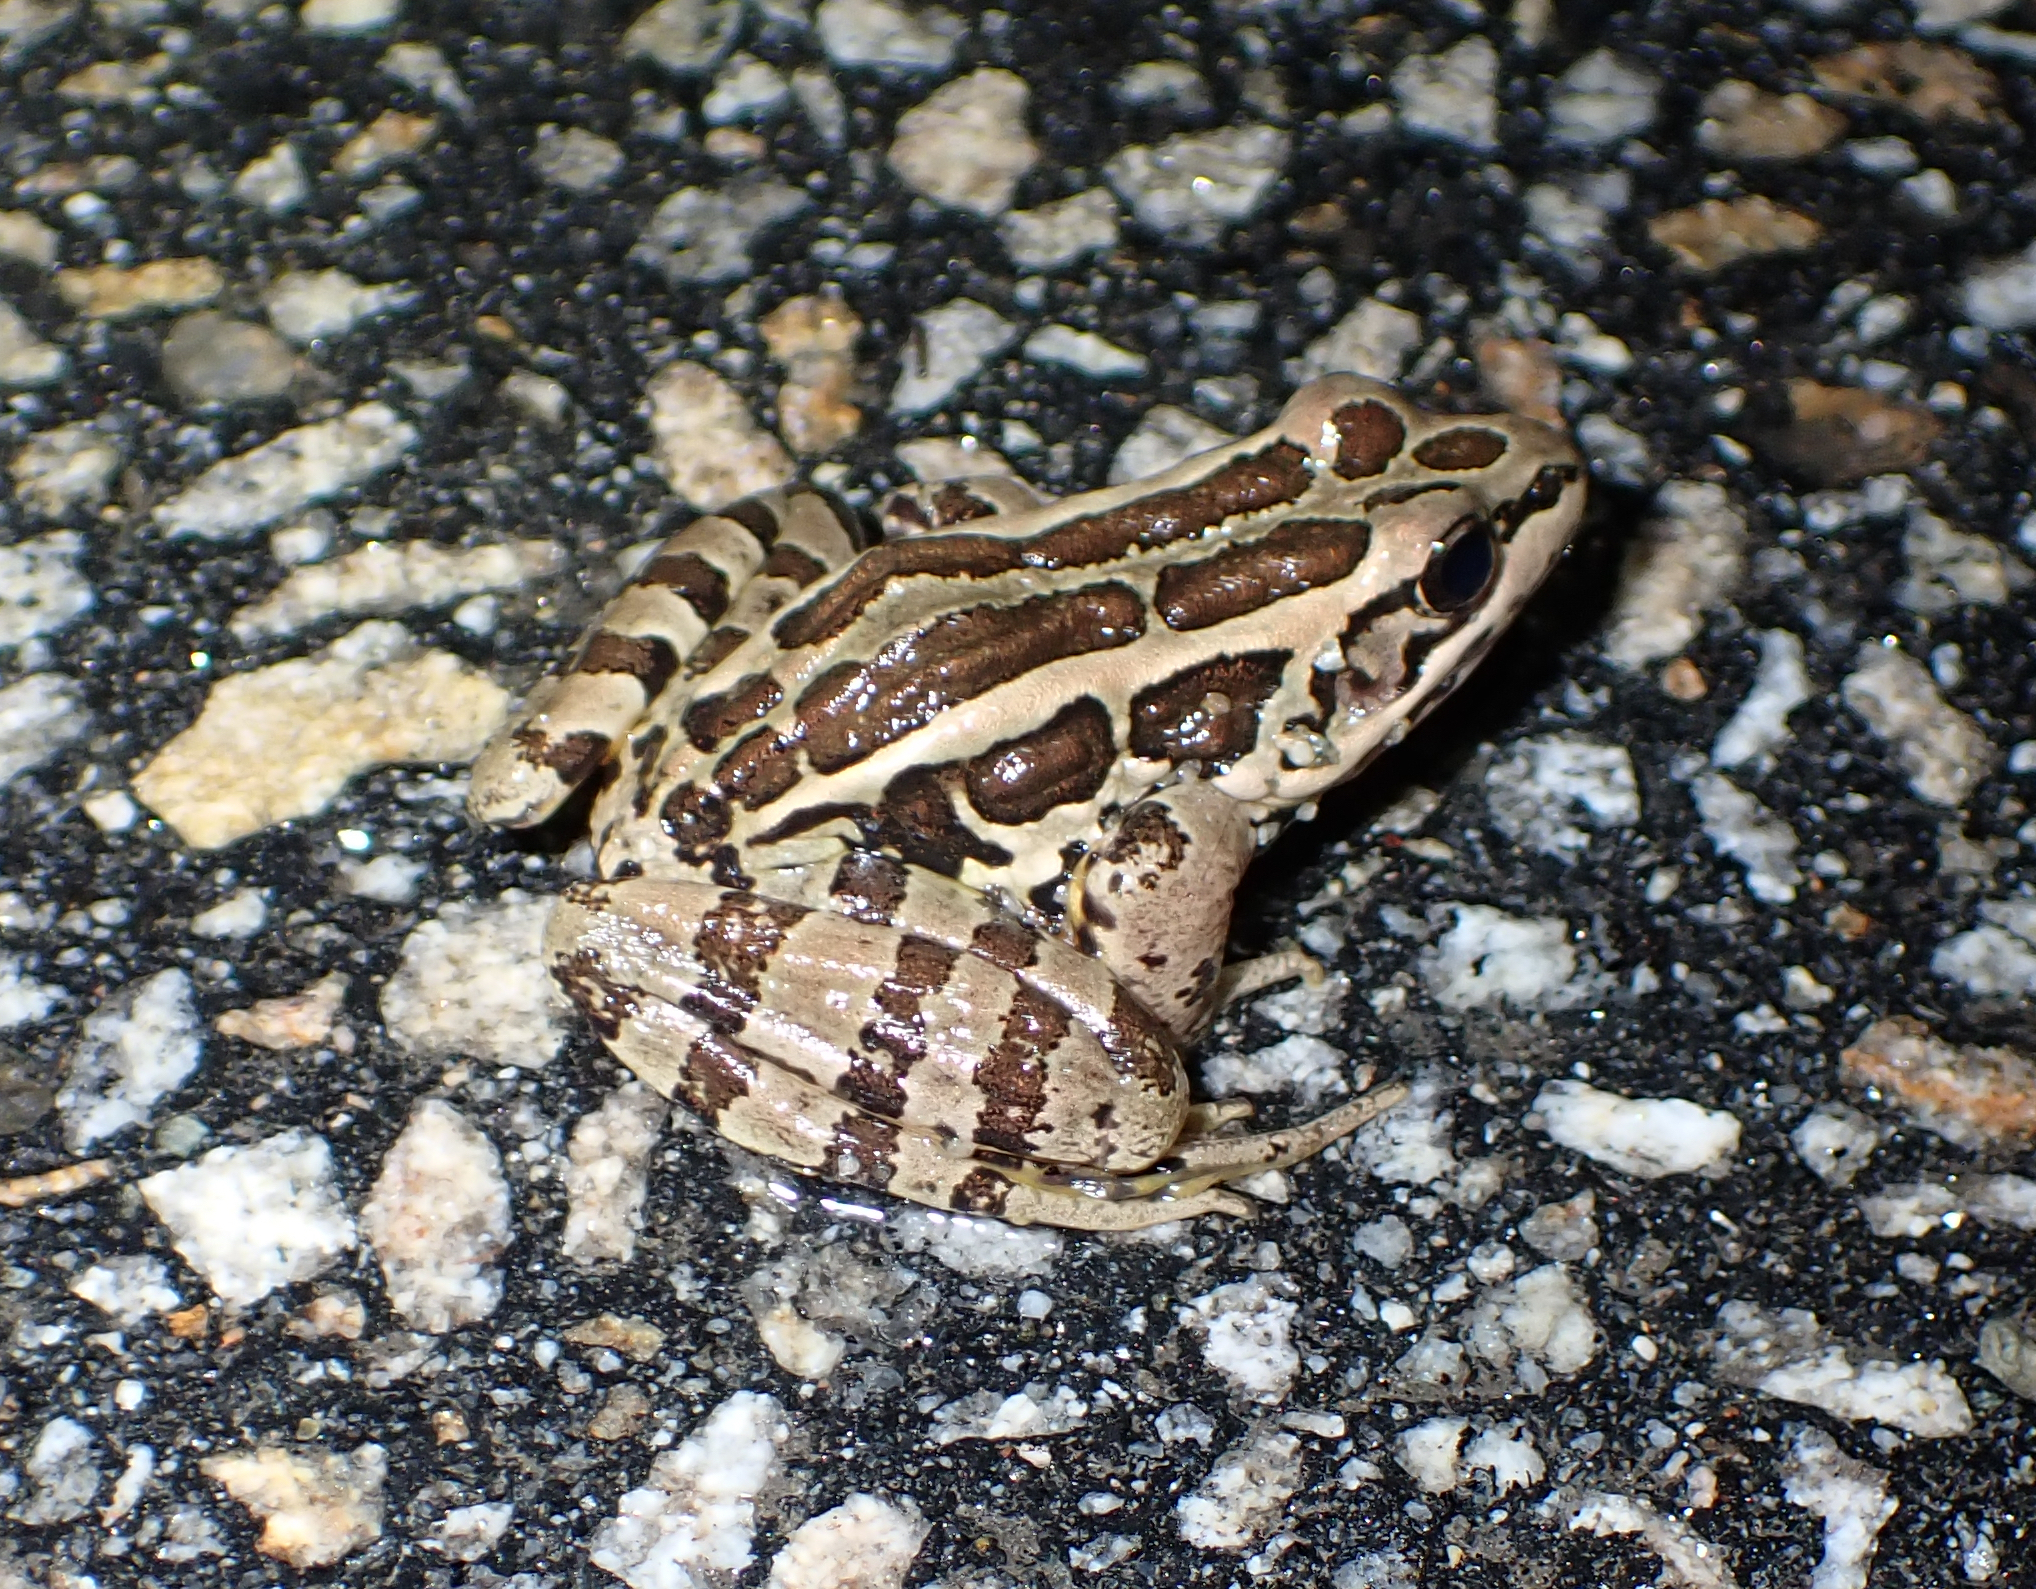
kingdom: Animalia
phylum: Chordata
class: Amphibia
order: Anura
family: Ranidae
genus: Lithobates
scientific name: Lithobates palustris
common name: Pickerel frog
